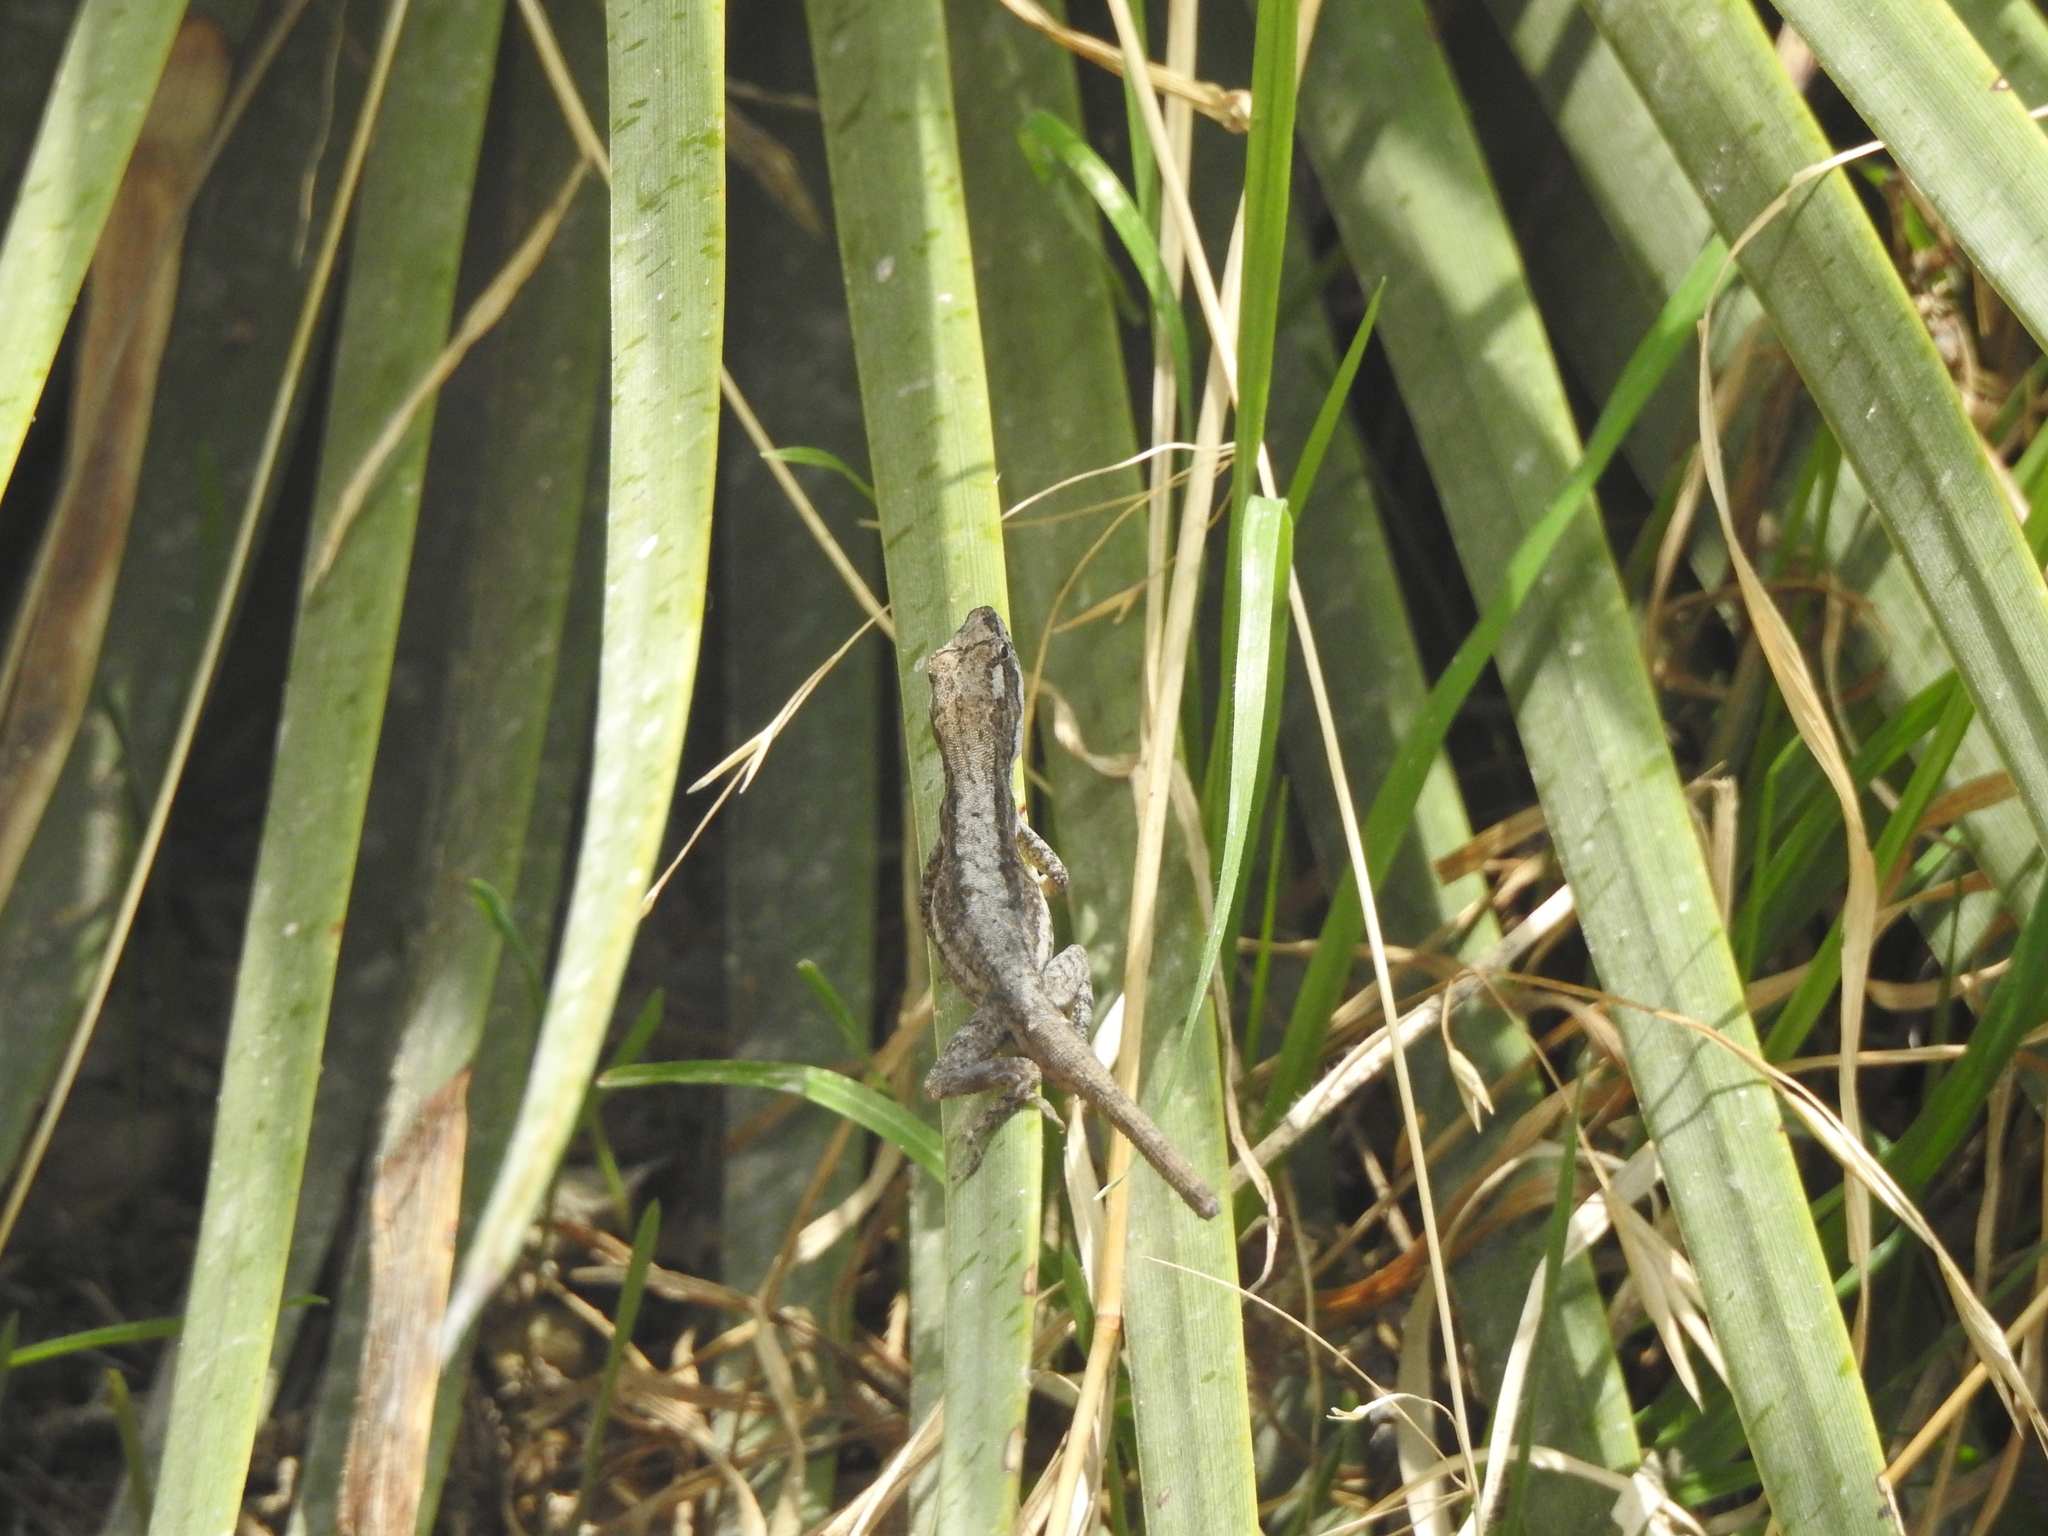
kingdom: Animalia
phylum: Chordata
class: Squamata
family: Dactyloidae
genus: Anolis
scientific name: Anolis carlliebi
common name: Carl lieb’s anole
